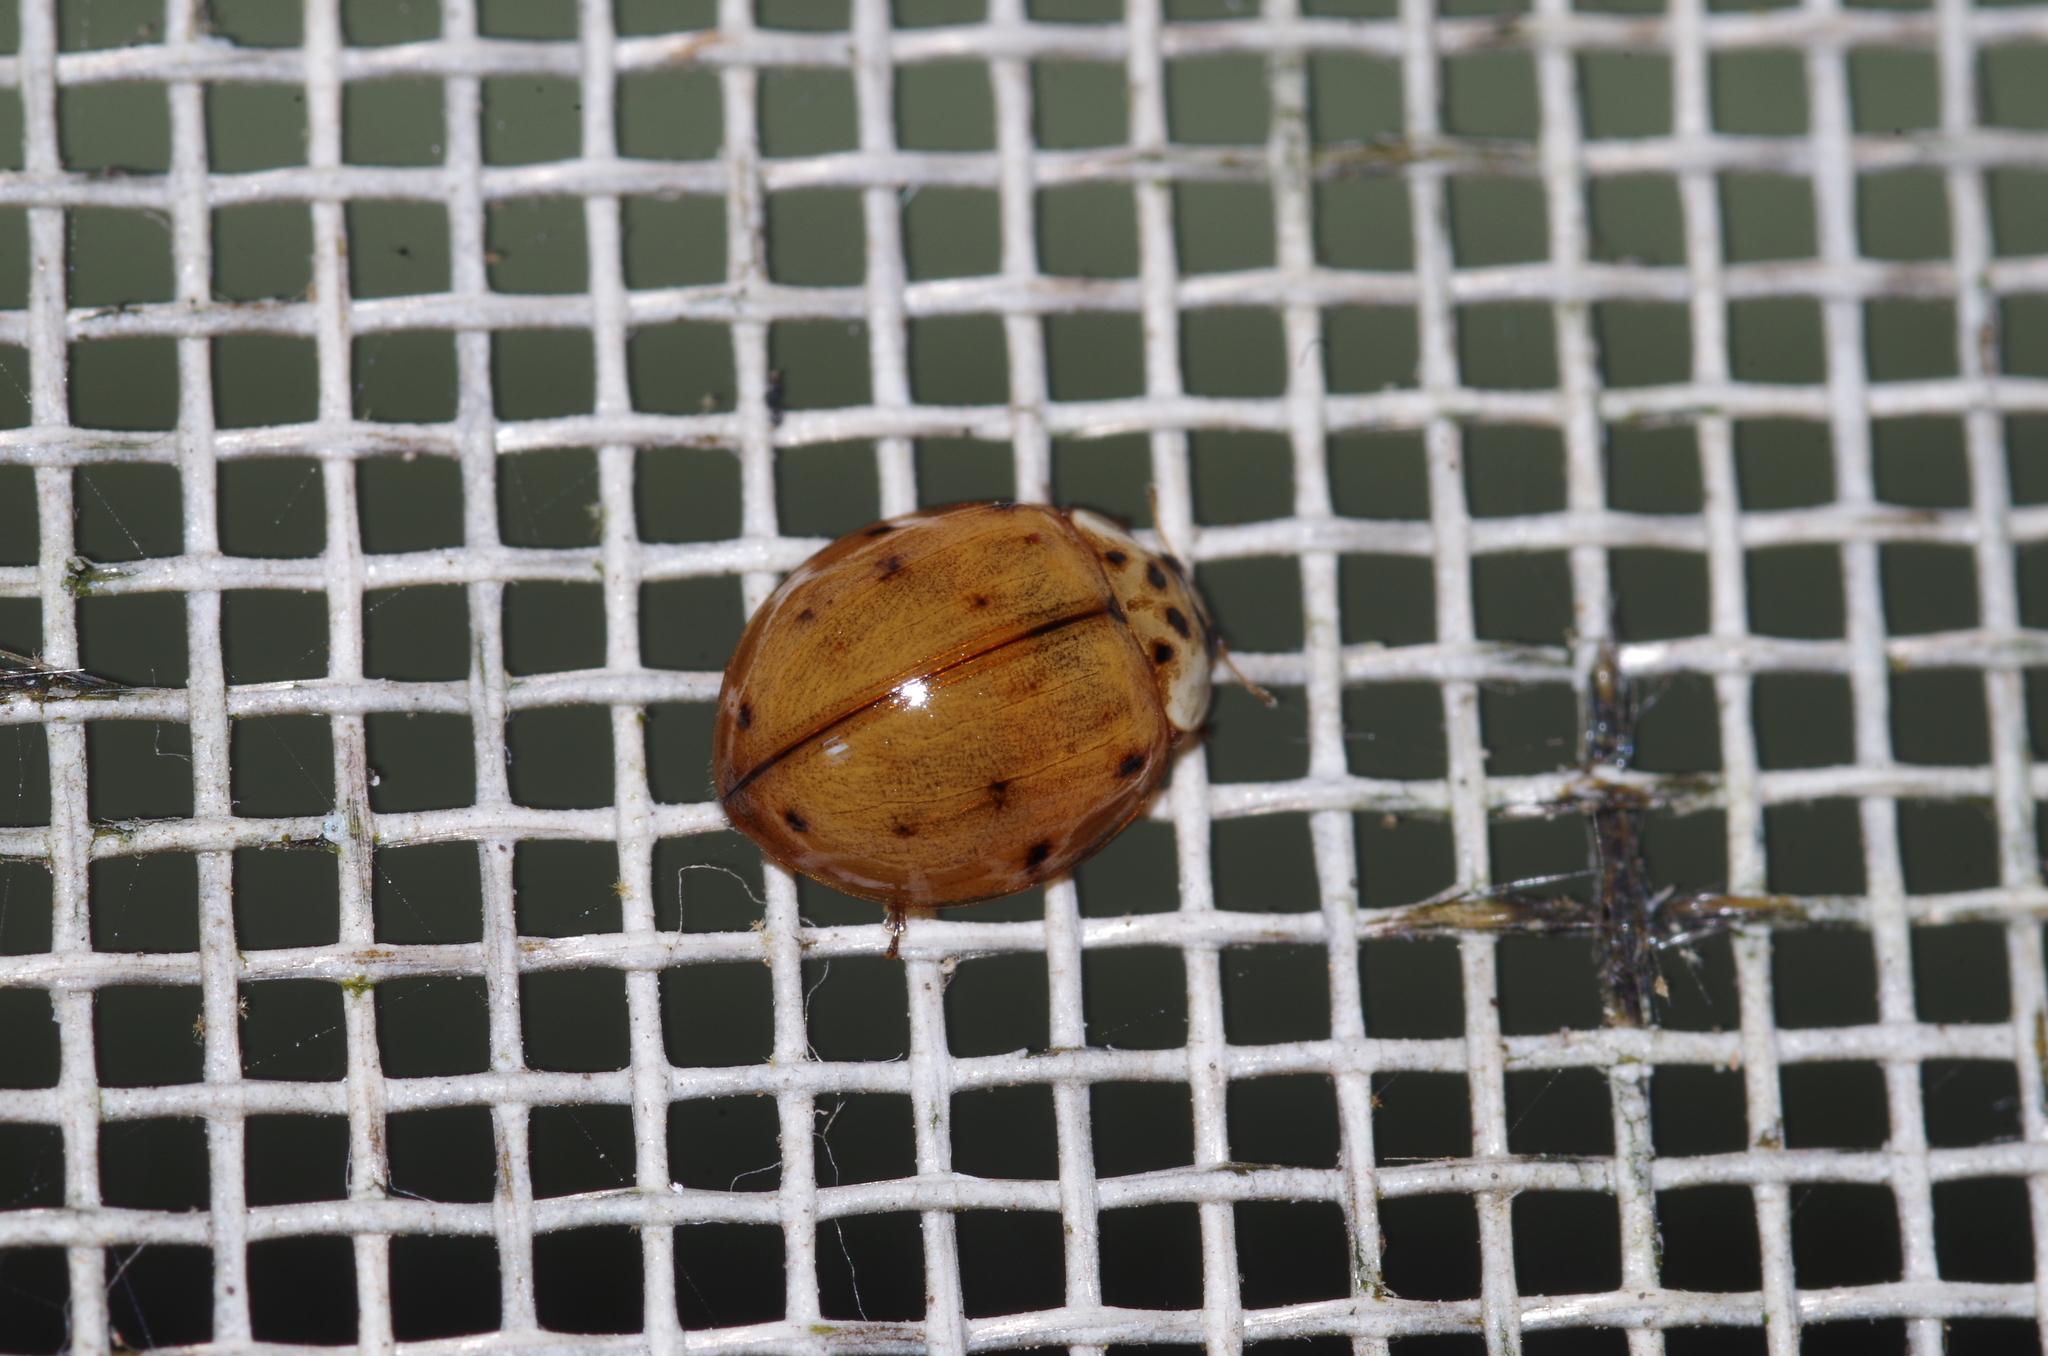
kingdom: Animalia
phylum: Arthropoda
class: Insecta
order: Coleoptera
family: Coccinellidae
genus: Harmonia
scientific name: Harmonia yedoensis
